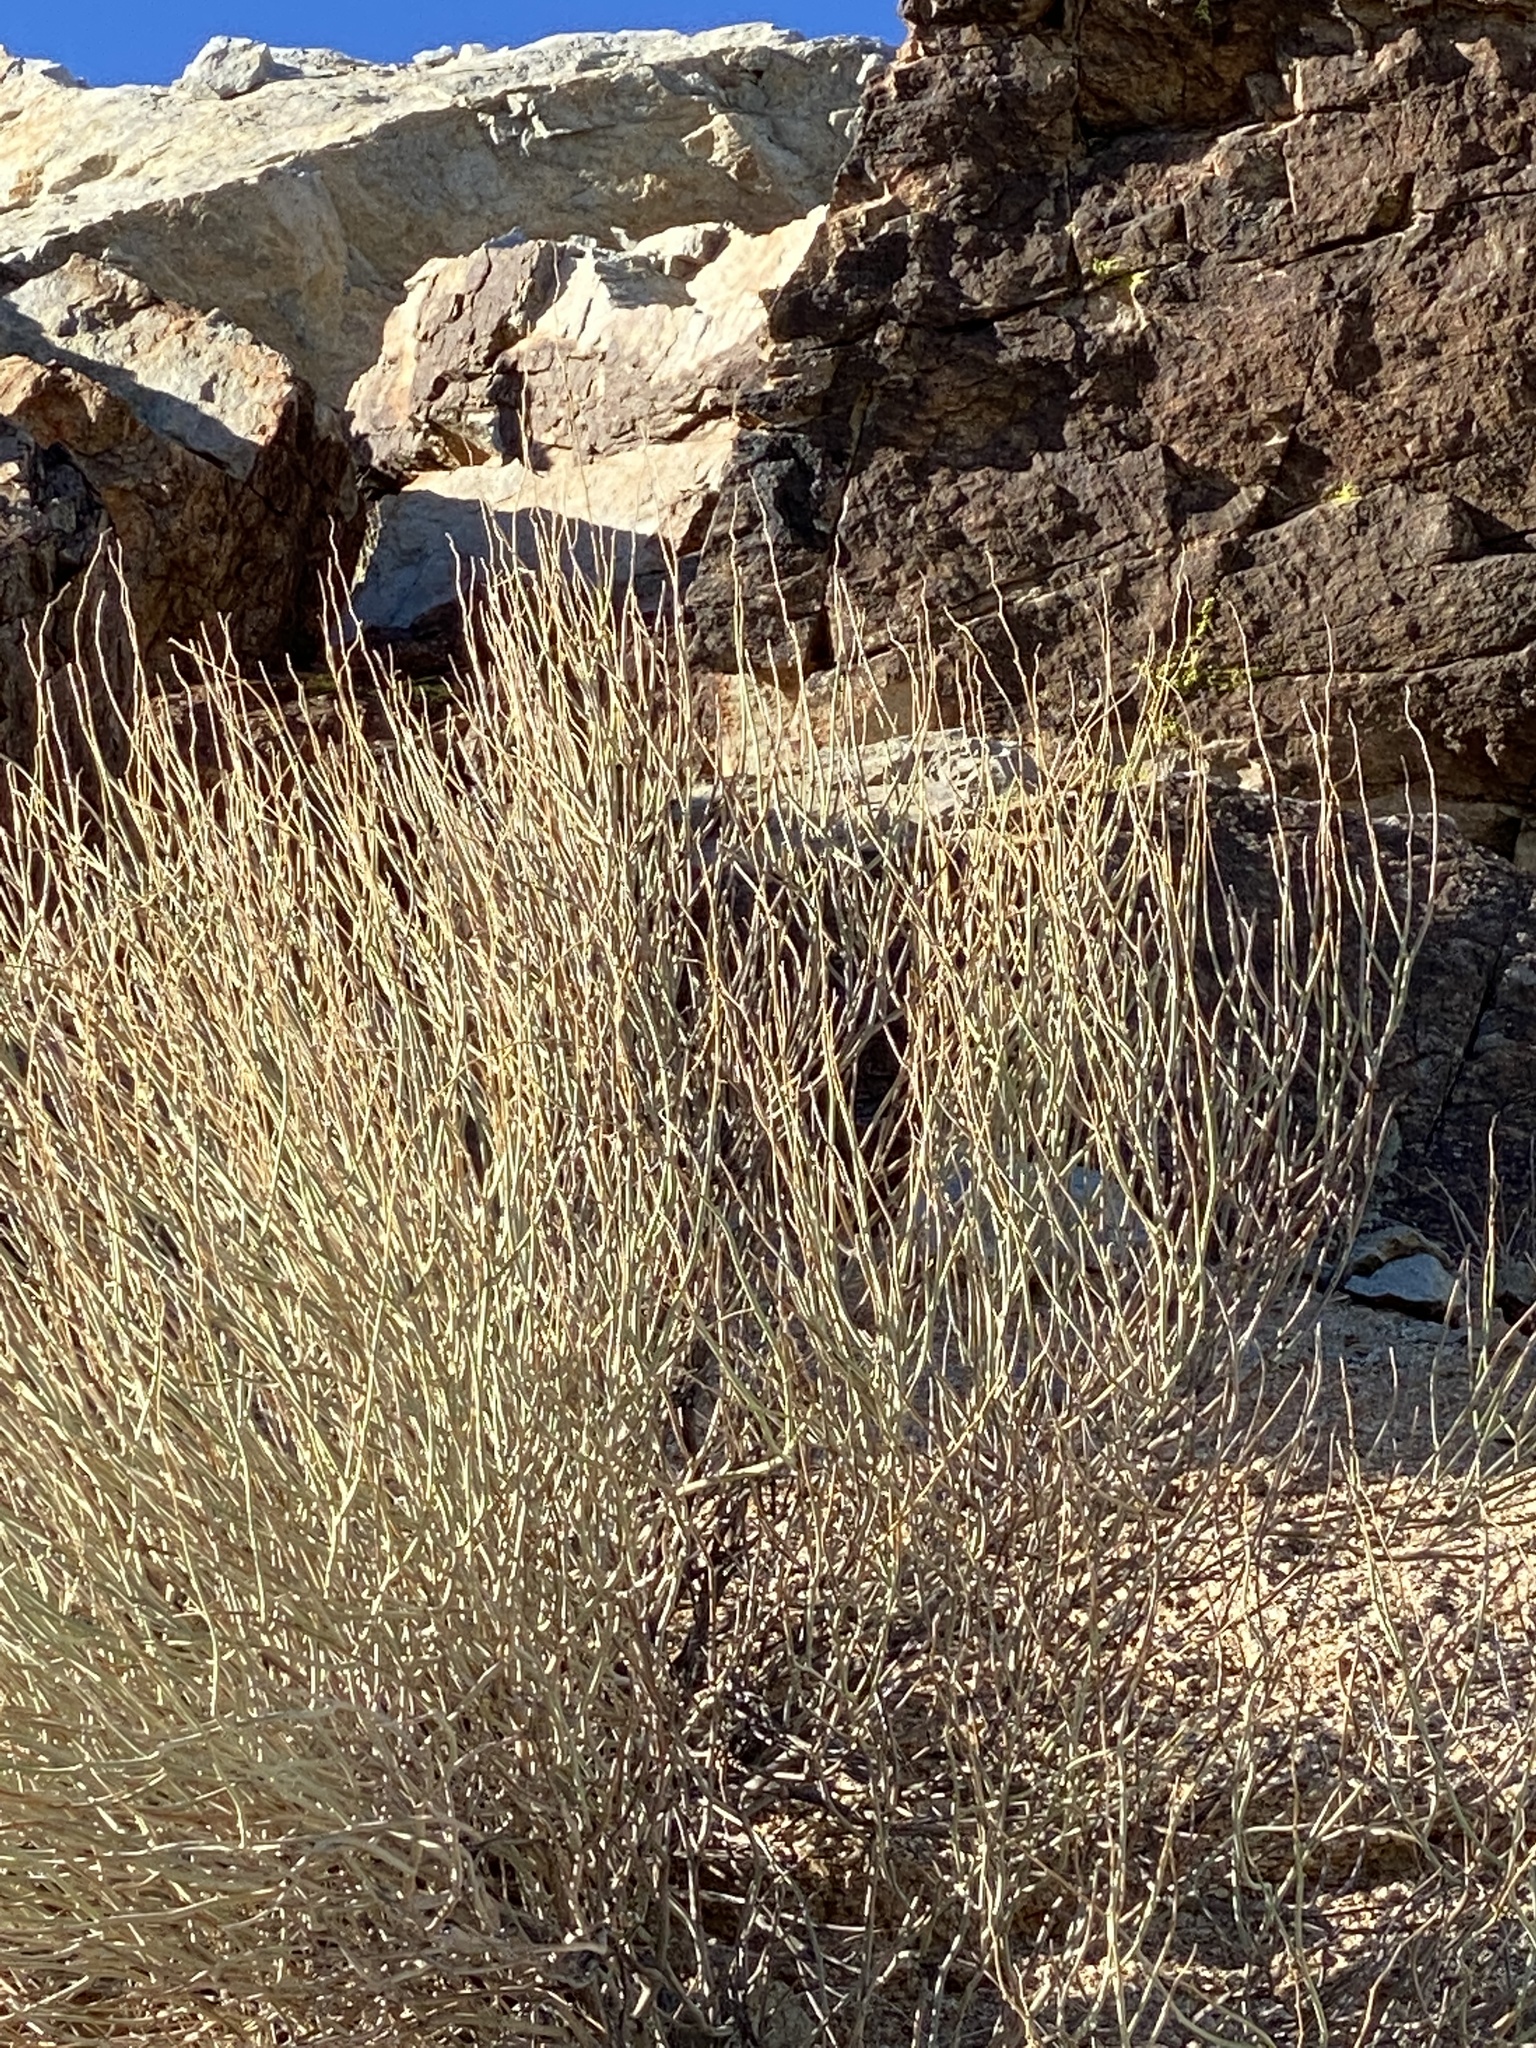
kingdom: Plantae
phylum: Tracheophyta
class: Magnoliopsida
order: Fabales
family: Fabaceae
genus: Senna
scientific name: Senna armata
